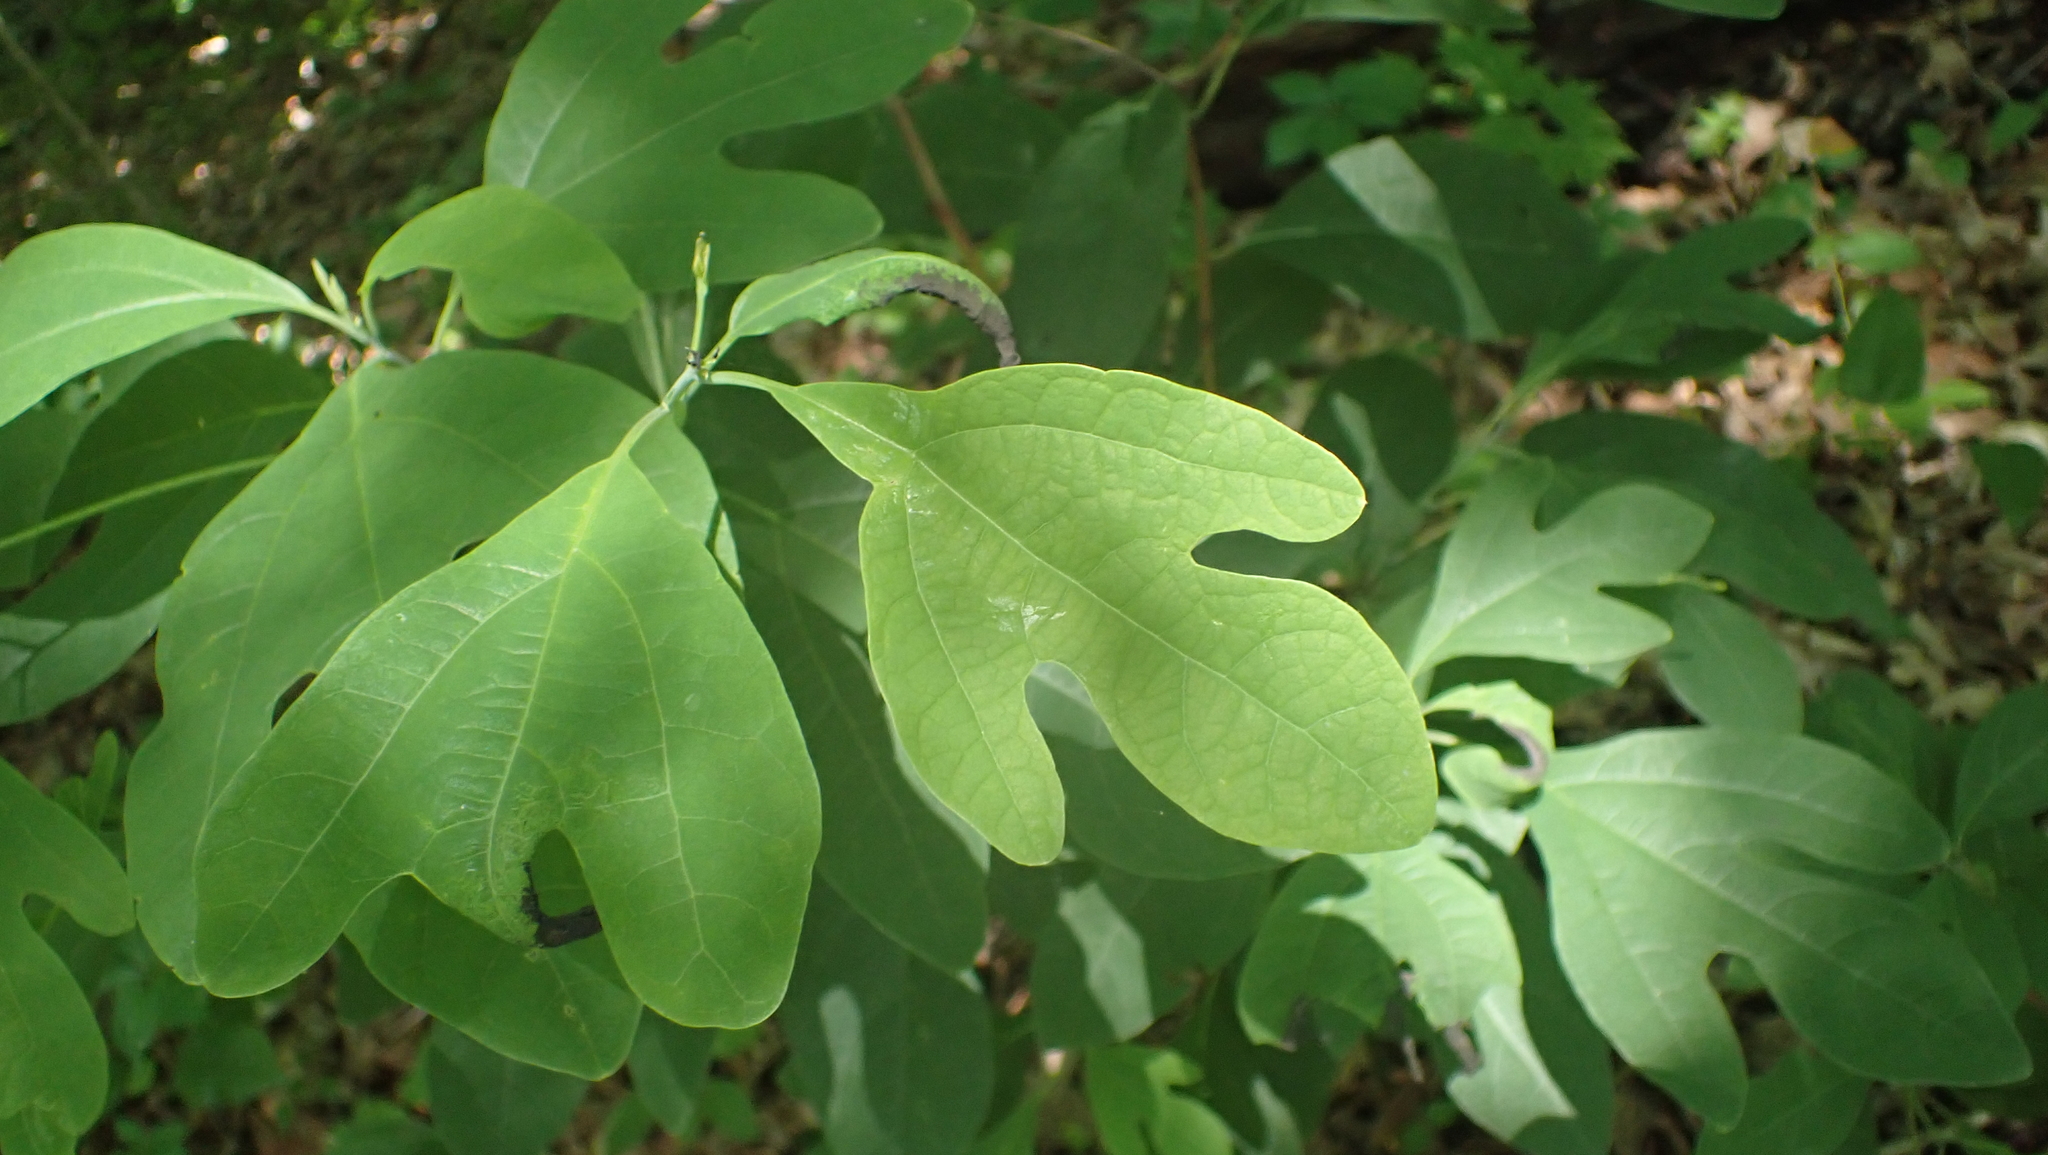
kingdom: Plantae
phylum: Tracheophyta
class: Magnoliopsida
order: Laurales
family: Lauraceae
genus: Sassafras
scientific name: Sassafras albidum
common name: Sassafras
